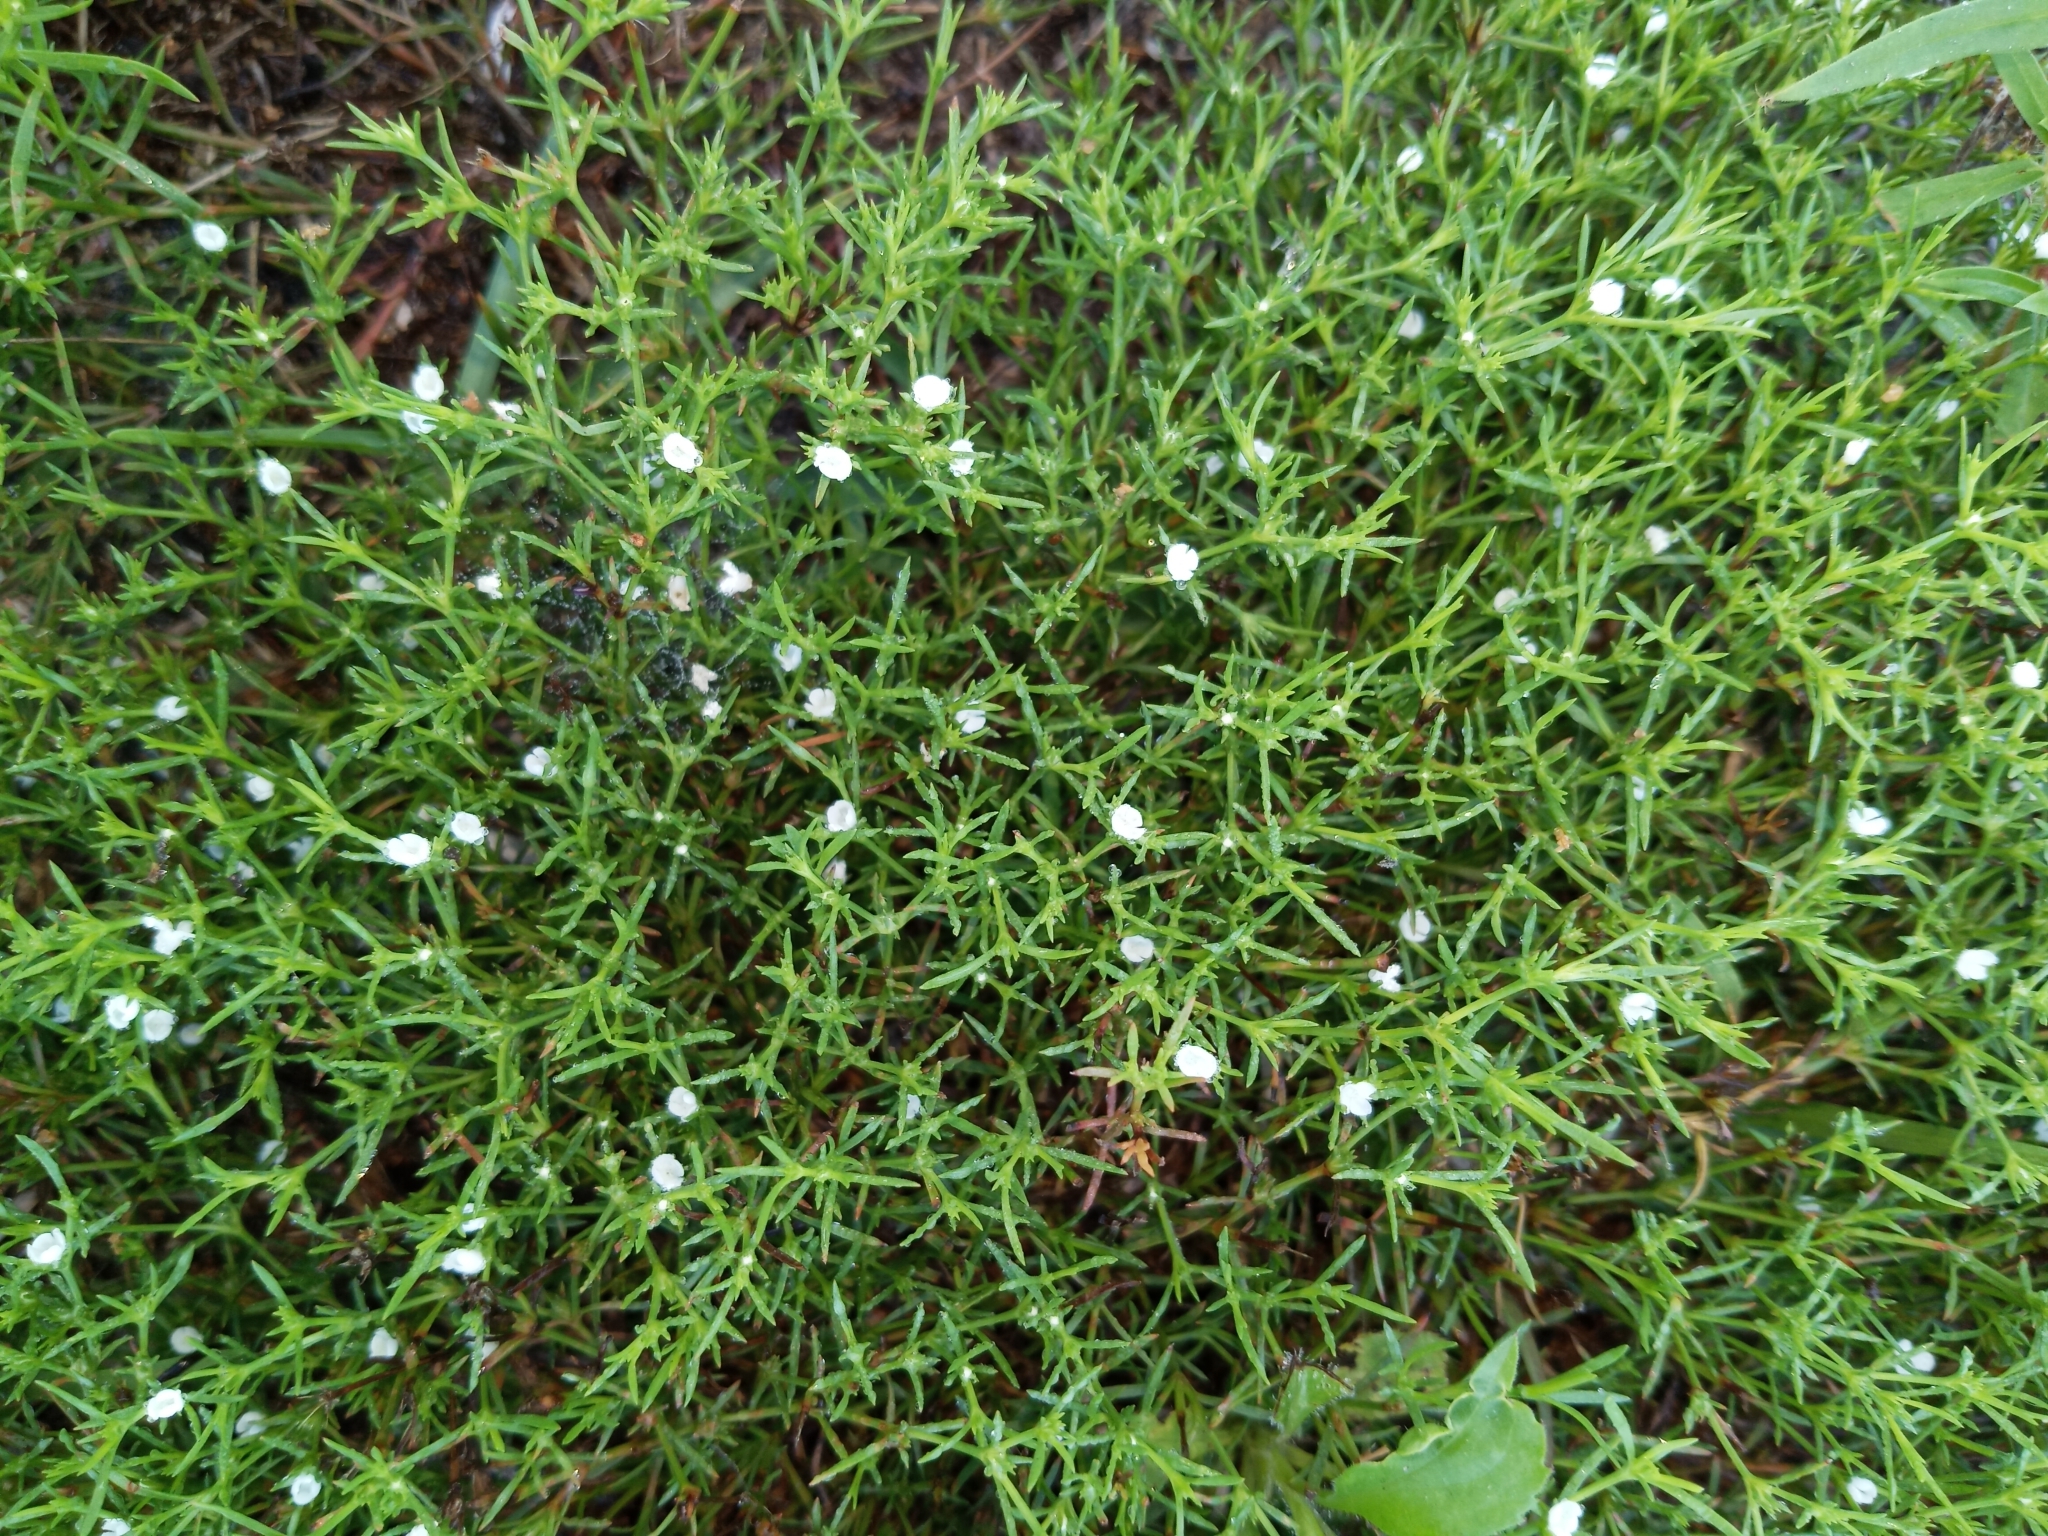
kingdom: Plantae
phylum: Tracheophyta
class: Magnoliopsida
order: Lamiales
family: Tetrachondraceae
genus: Polypremum
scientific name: Polypremum procumbens
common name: Juniper-leaf
